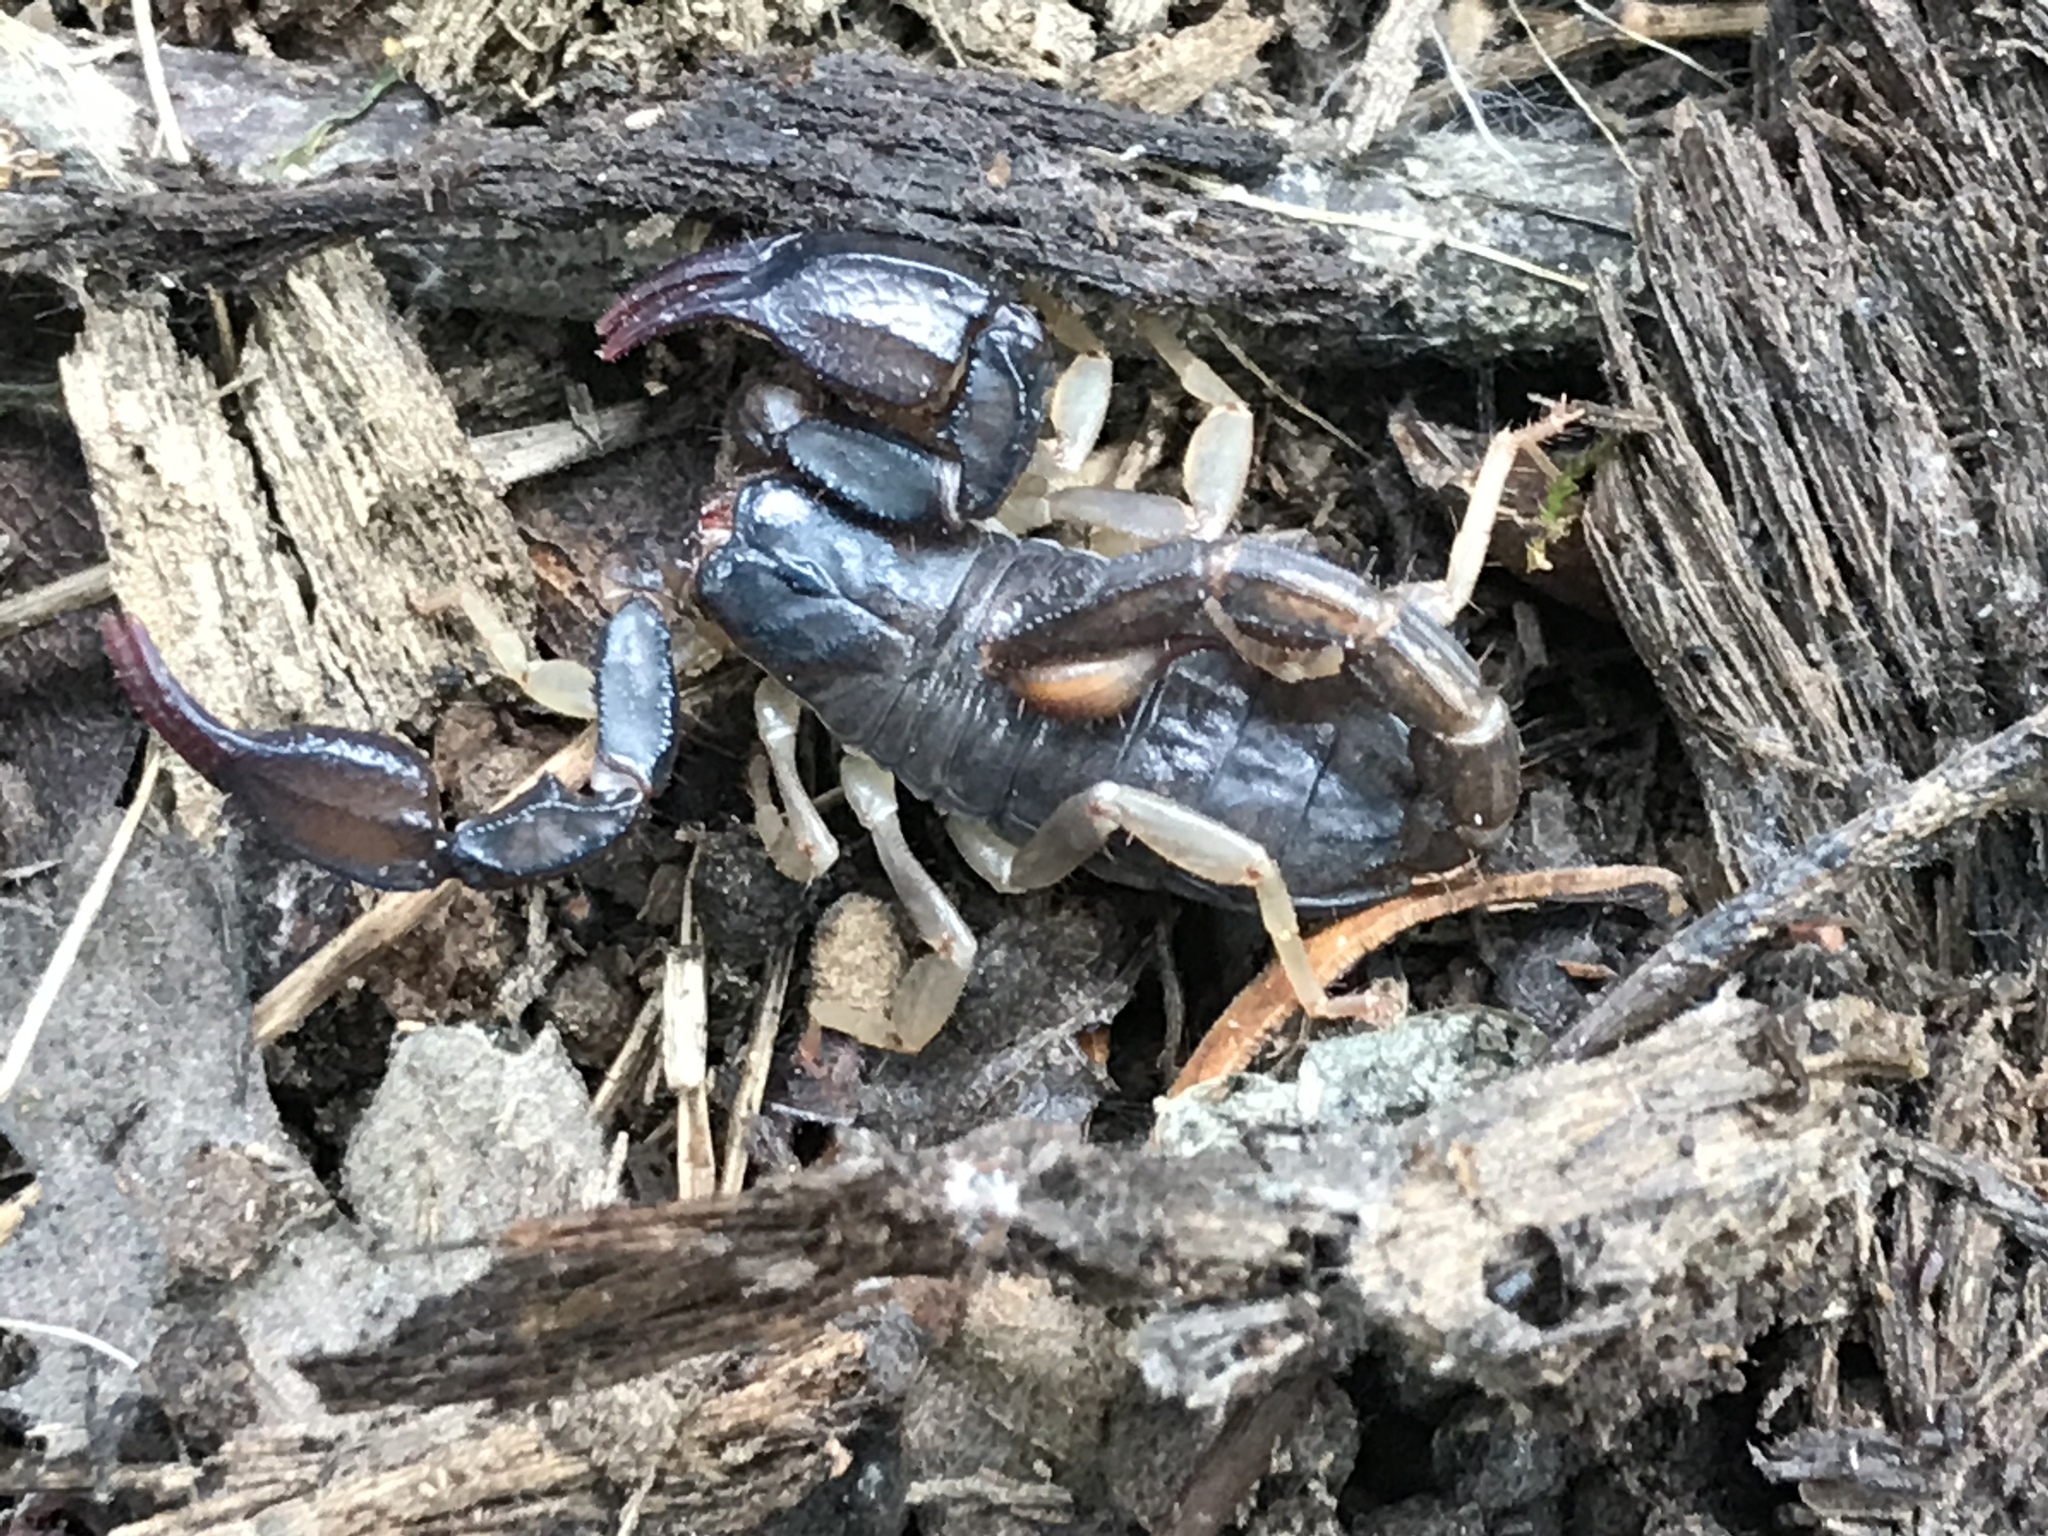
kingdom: Animalia
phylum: Arthropoda
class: Arachnida
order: Scorpiones
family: Chactidae
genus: Uroctonus
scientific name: Uroctonus mordax
